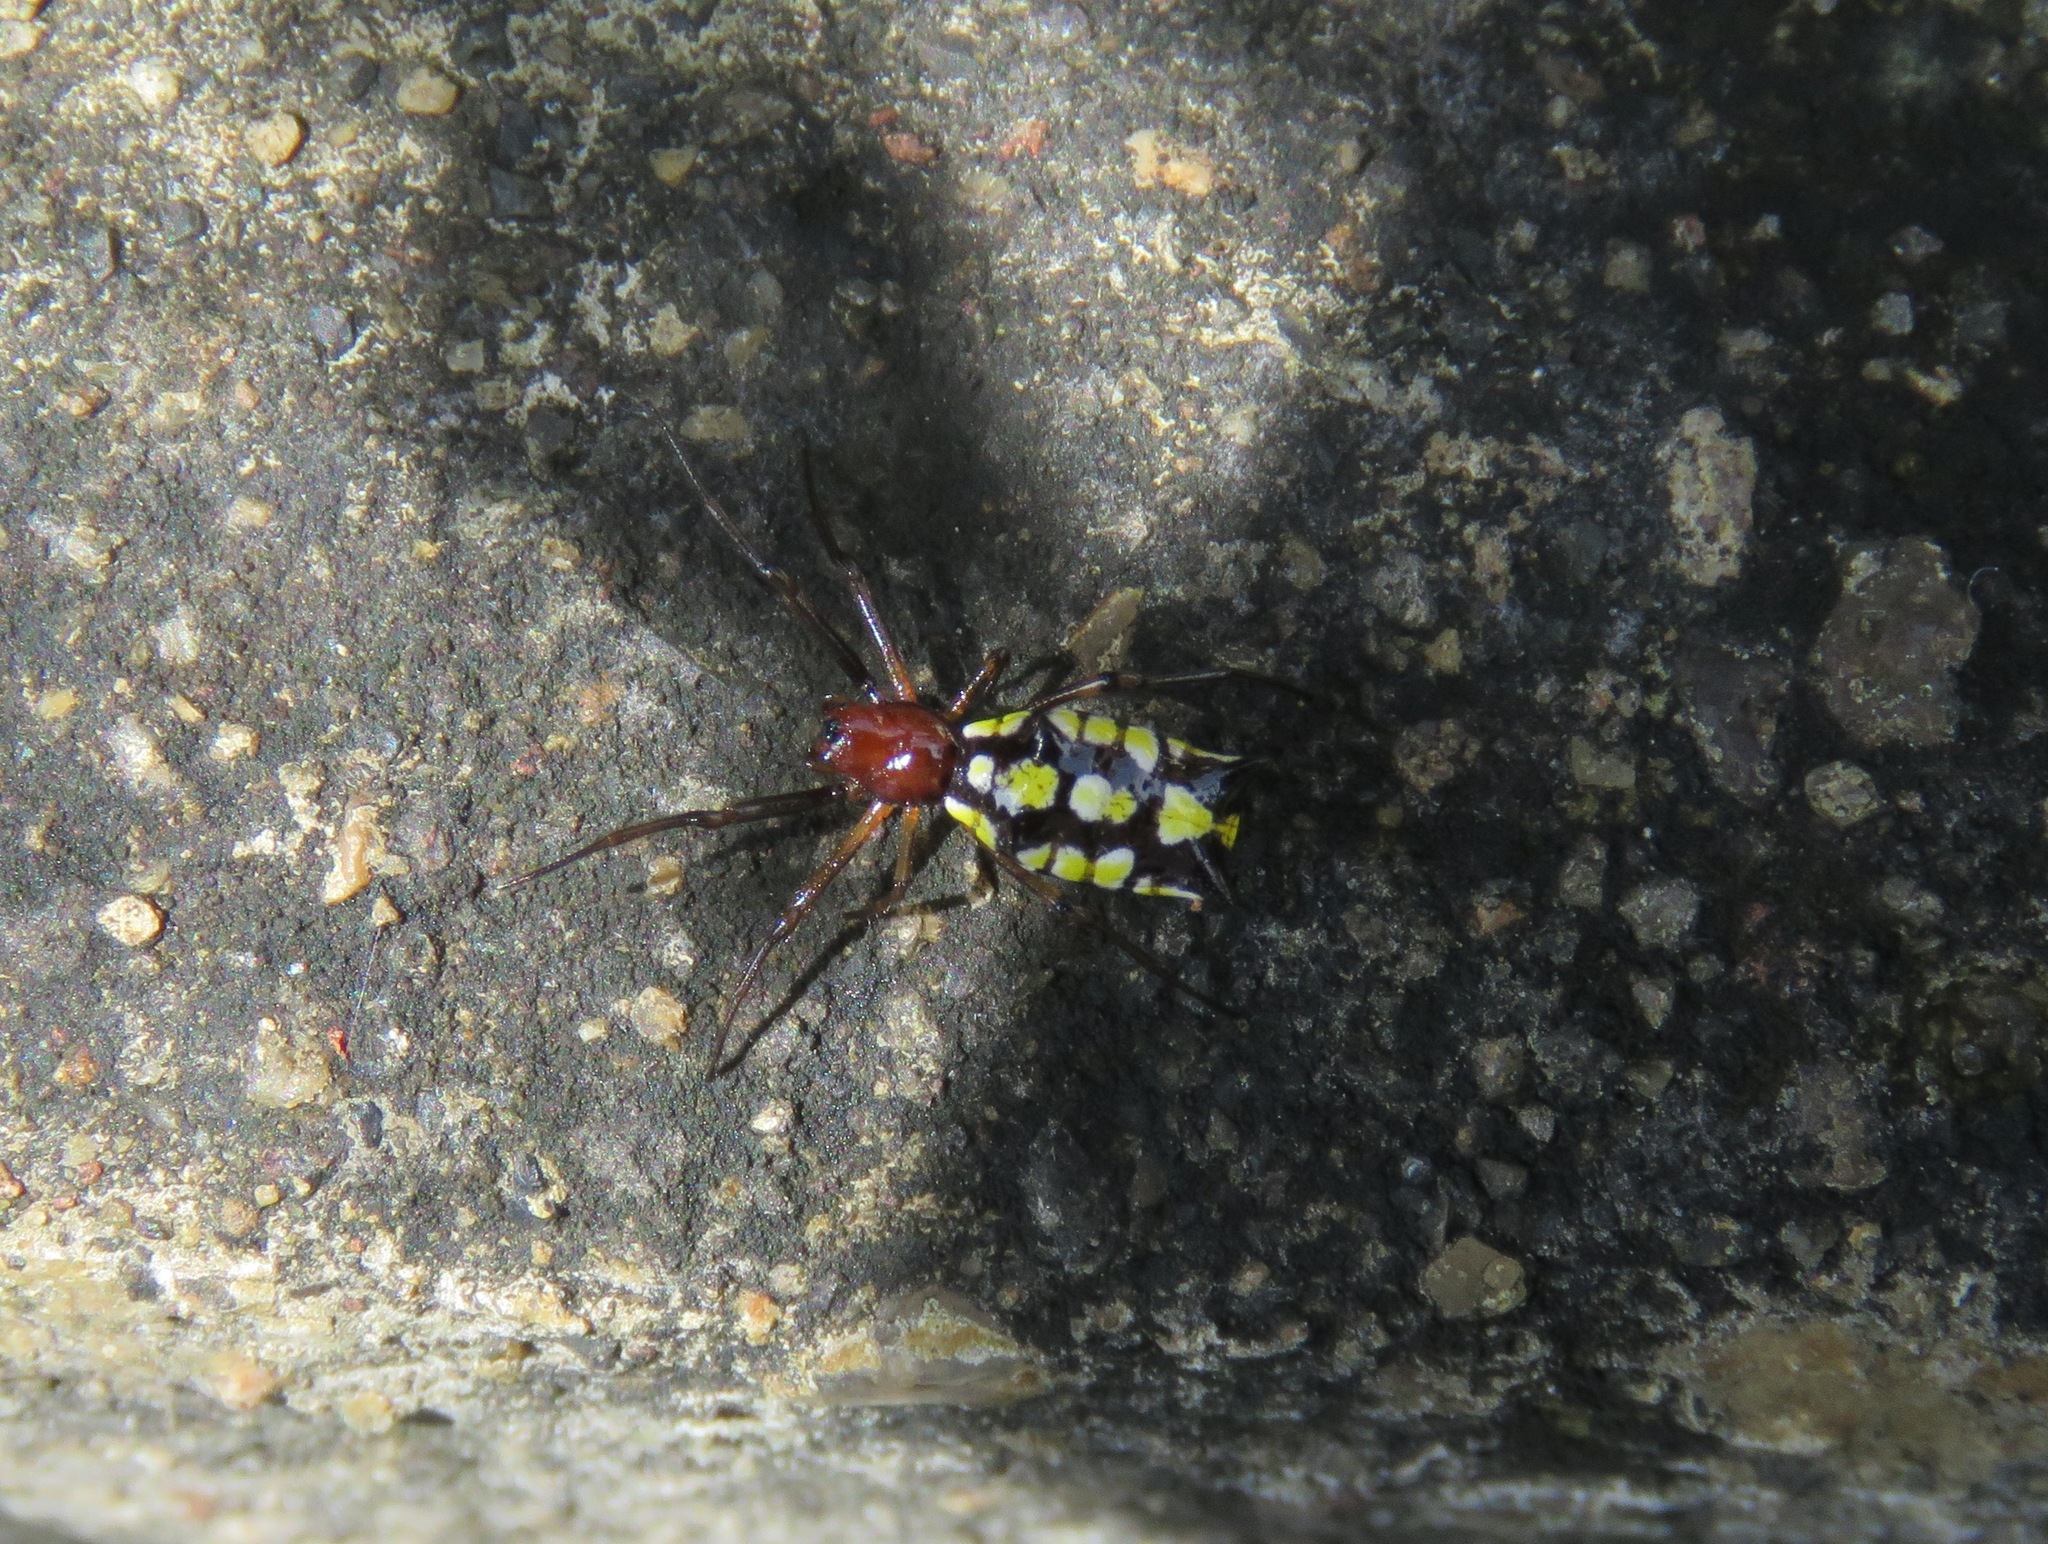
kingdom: Animalia
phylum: Arthropoda
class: Arachnida
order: Araneae
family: Araneidae
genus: Micrathena
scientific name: Micrathena funebris
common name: Orb weavers
